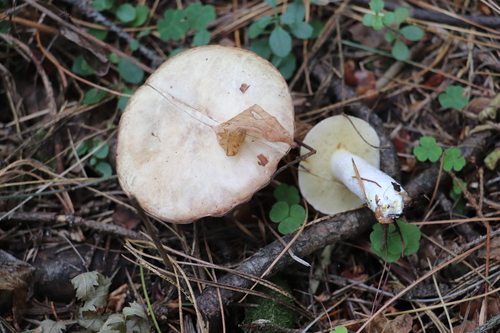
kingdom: Fungi
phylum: Basidiomycota
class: Agaricomycetes
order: Boletales
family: Suillaceae
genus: Suillus
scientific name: Suillus placidus
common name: Slippery white bolete
